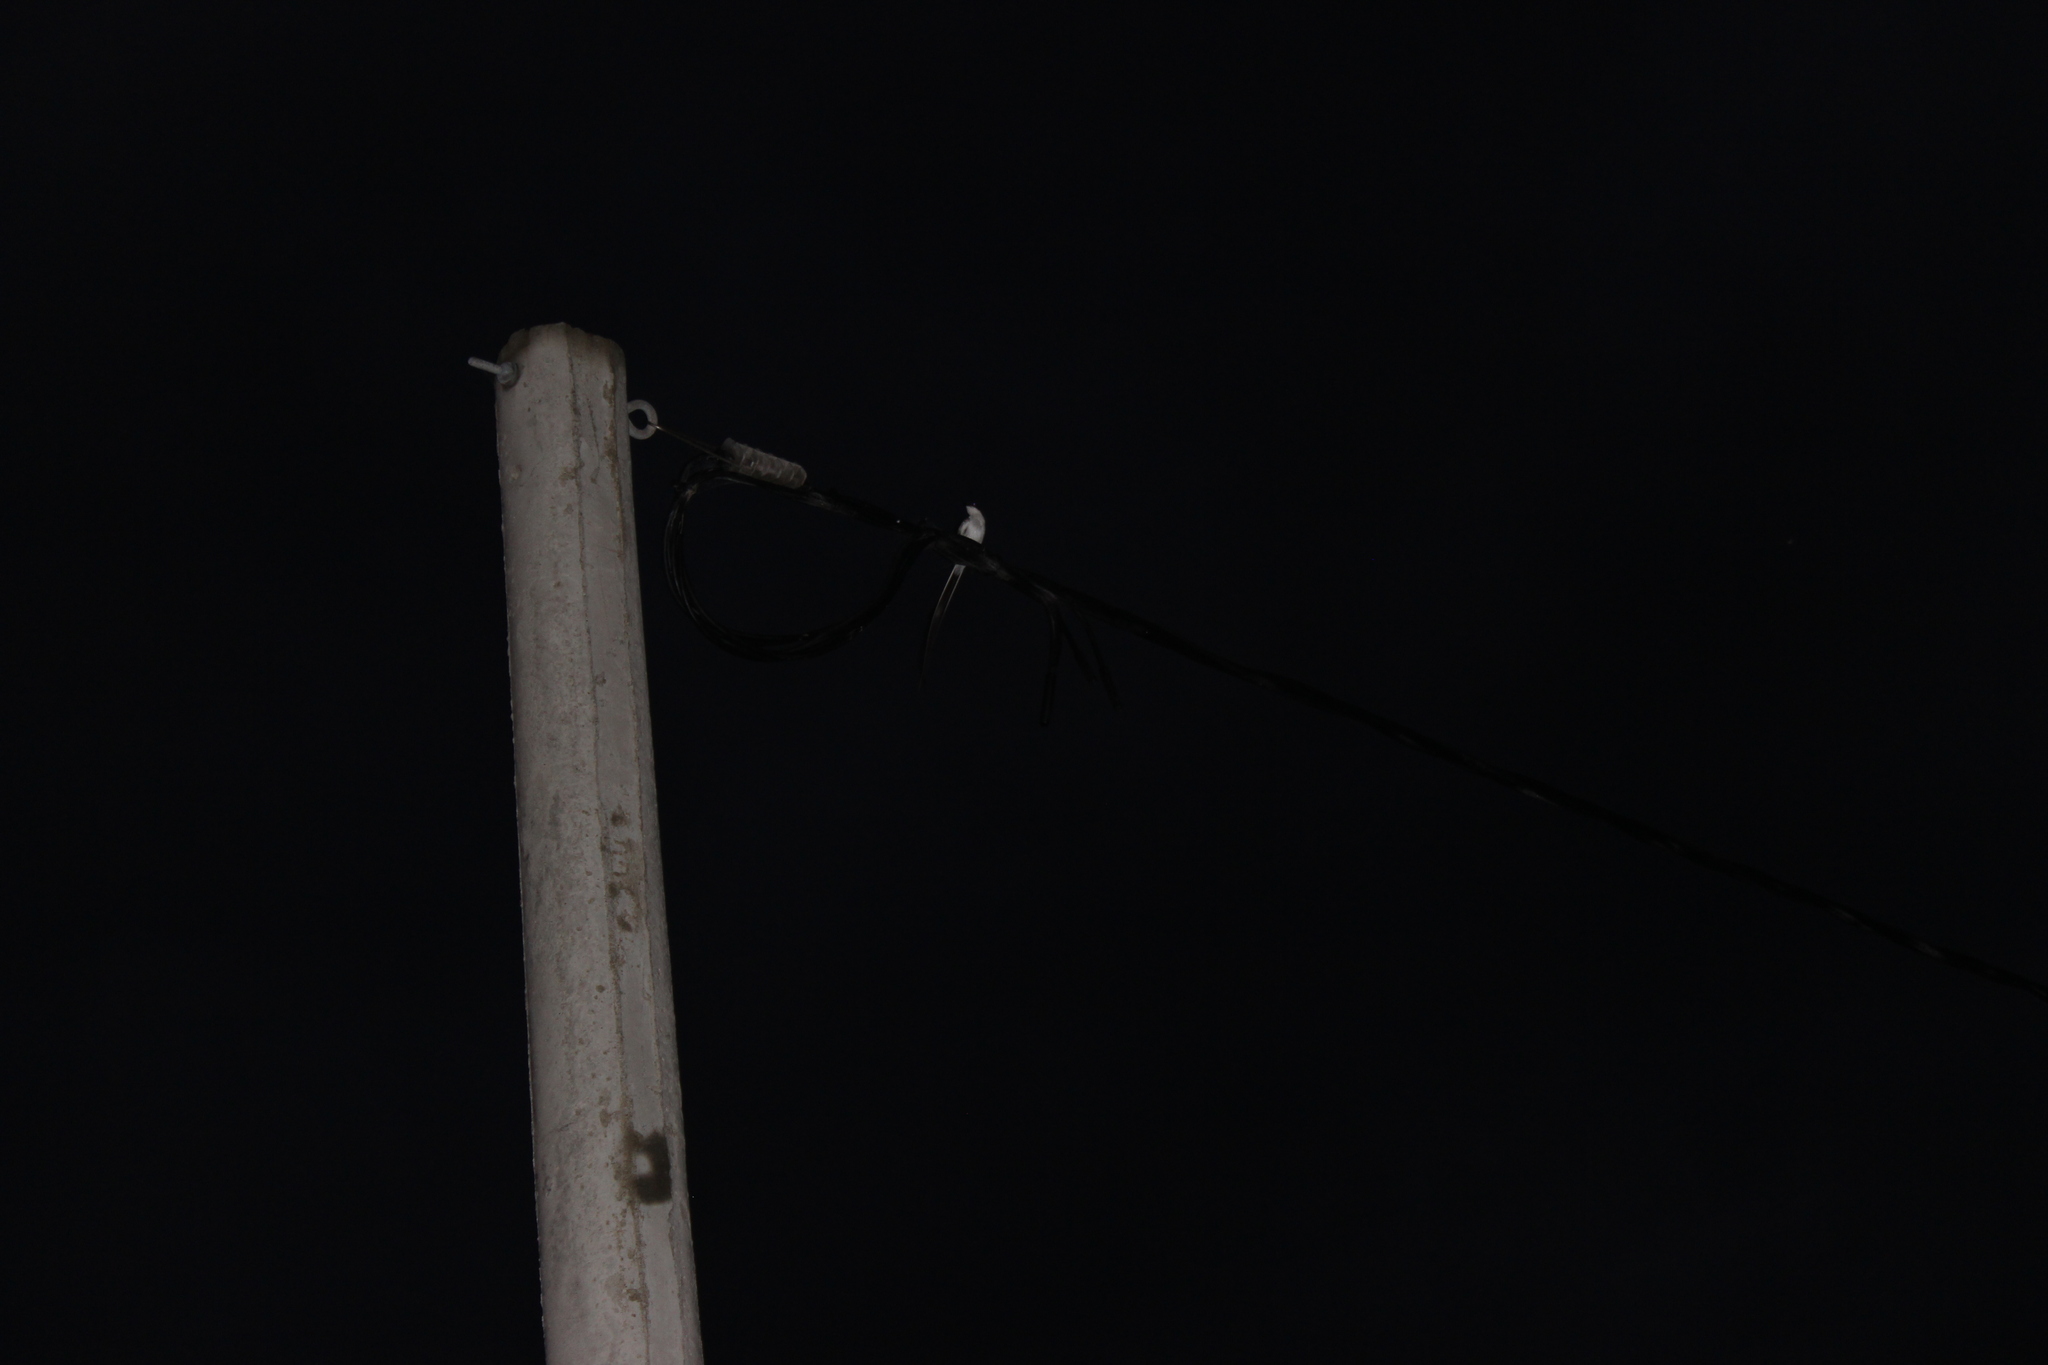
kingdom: Animalia
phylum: Chordata
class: Aves
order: Passeriformes
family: Tyrannidae
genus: Tyrannus
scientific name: Tyrannus savana
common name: Fork-tailed flycatcher
